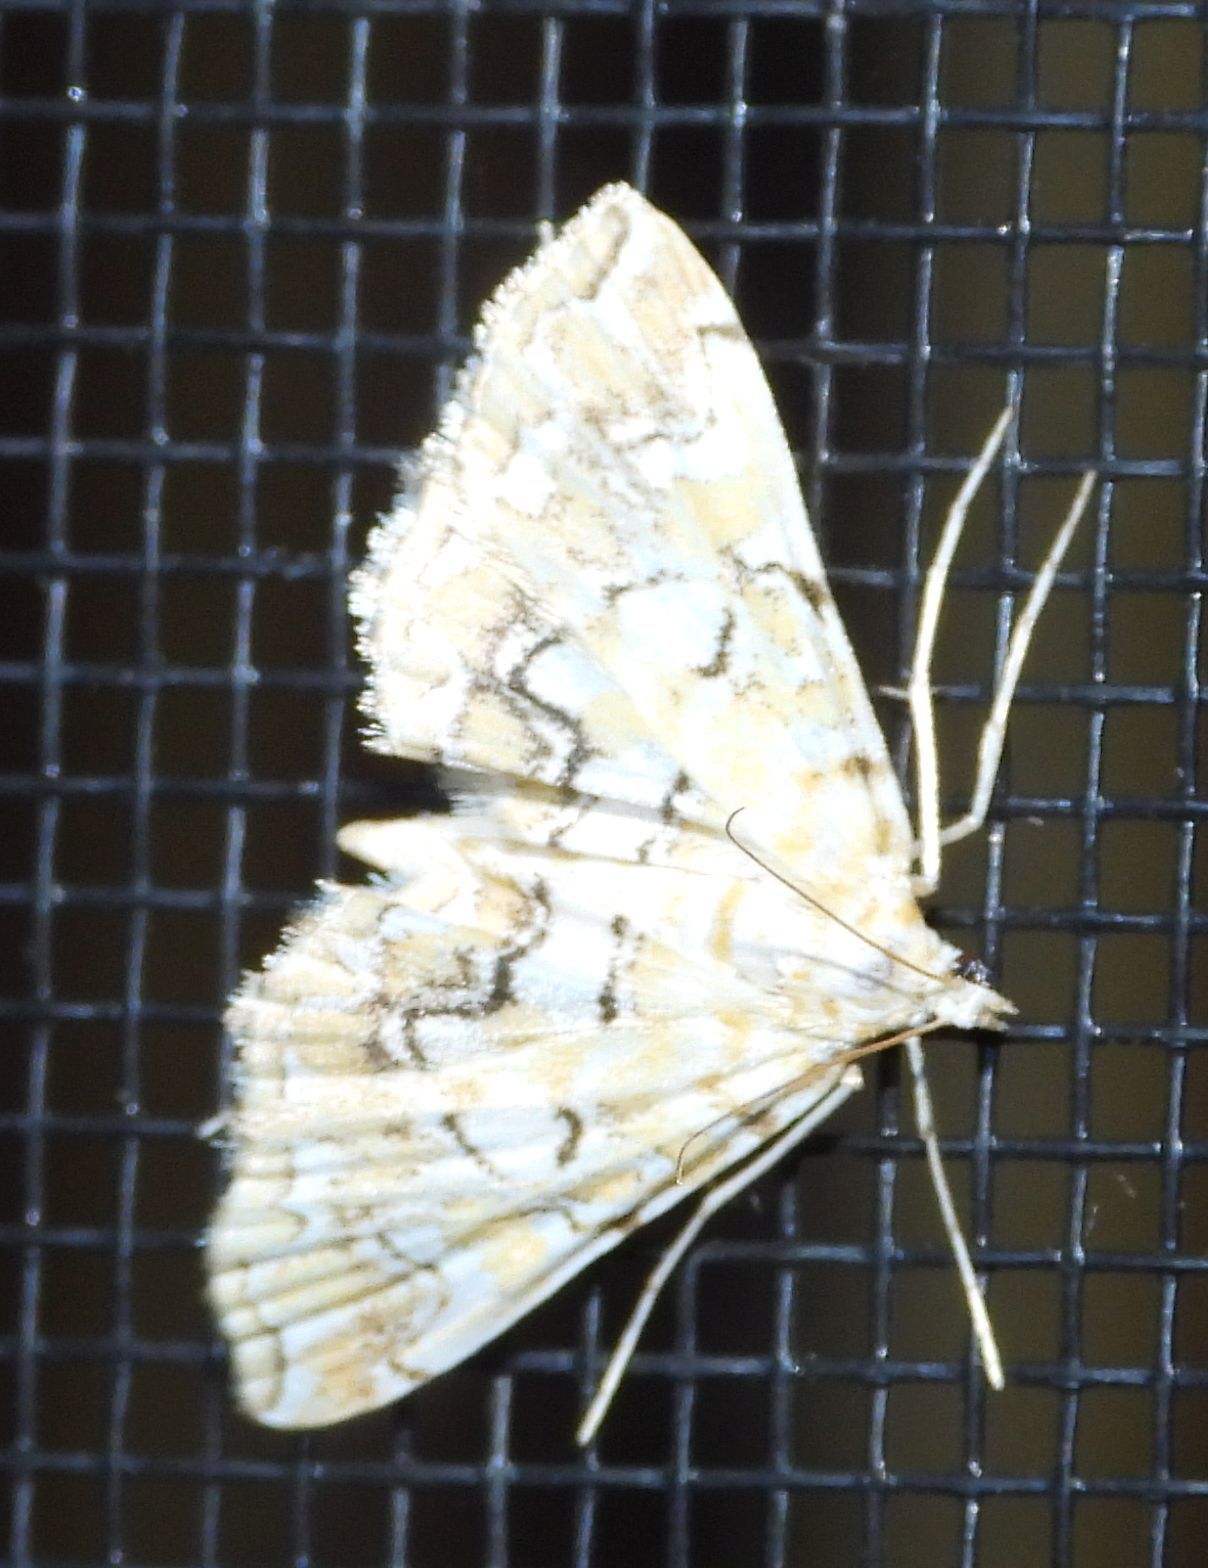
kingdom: Animalia
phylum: Arthropoda
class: Insecta
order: Lepidoptera
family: Crambidae
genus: Elophila
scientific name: Elophila icciusalis
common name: Pondside pyralid moth
